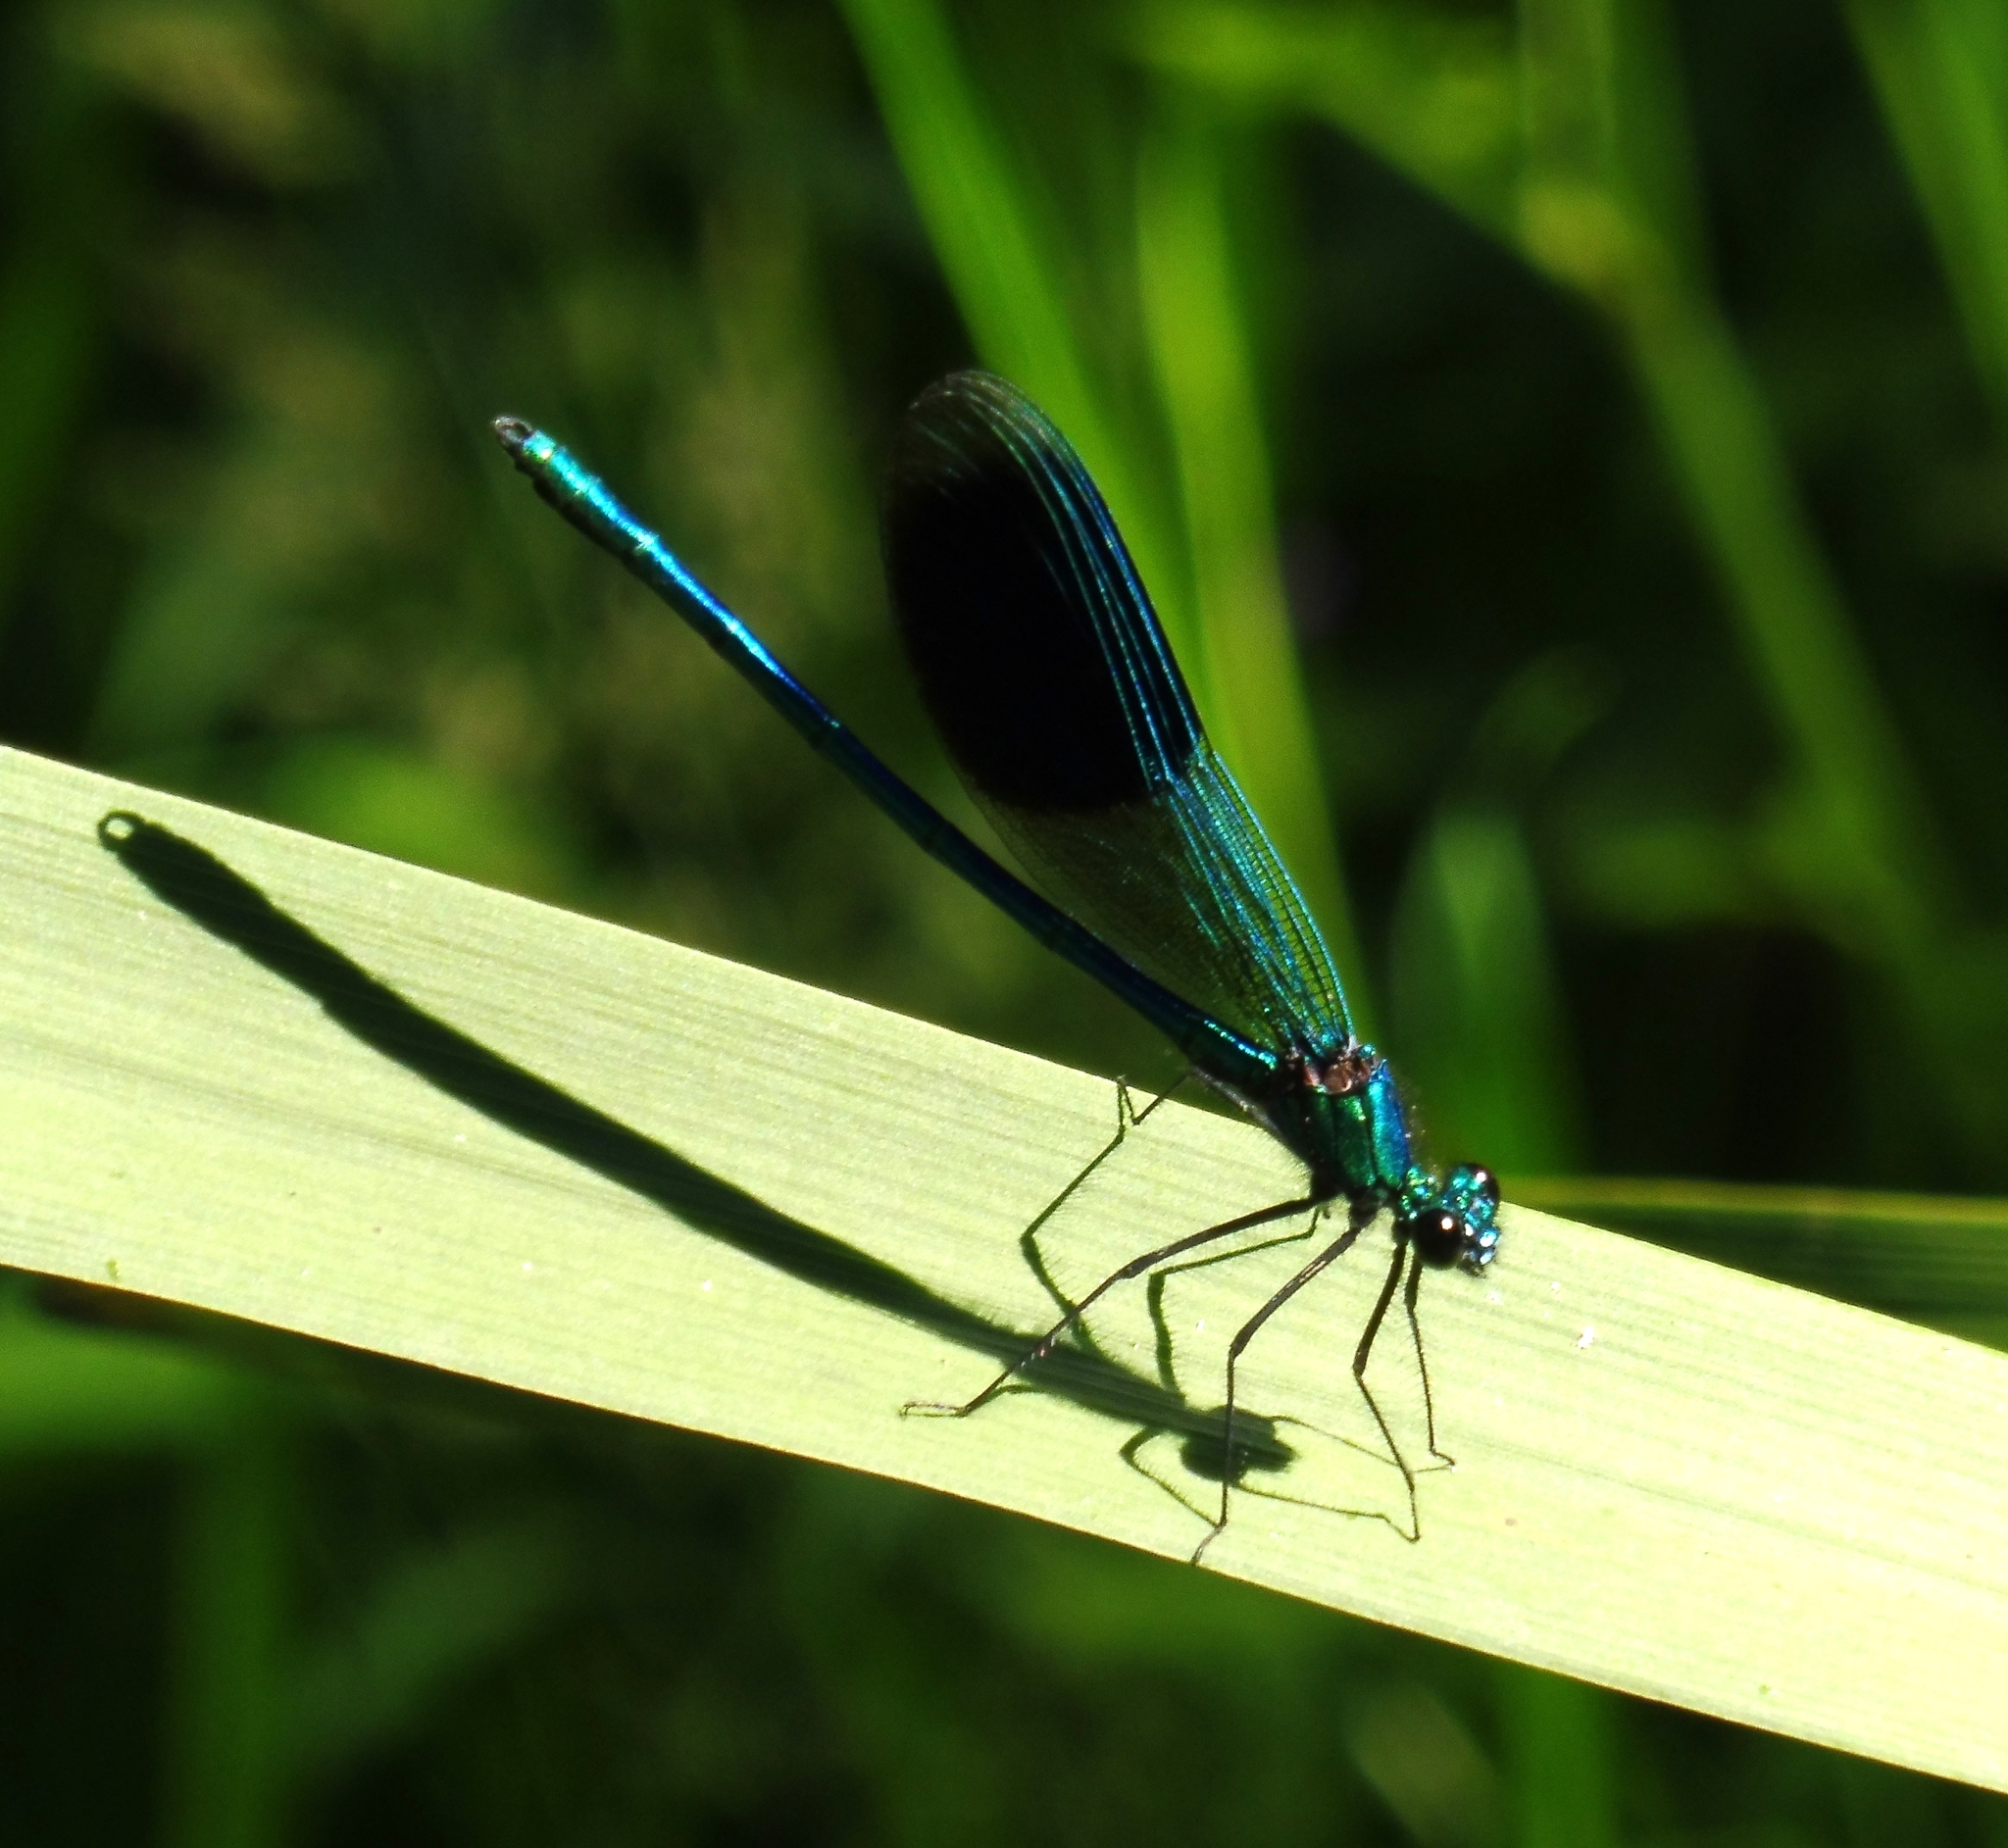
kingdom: Animalia
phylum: Arthropoda
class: Insecta
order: Odonata
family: Calopterygidae
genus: Calopteryx
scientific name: Calopteryx splendens
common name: Banded demoiselle
